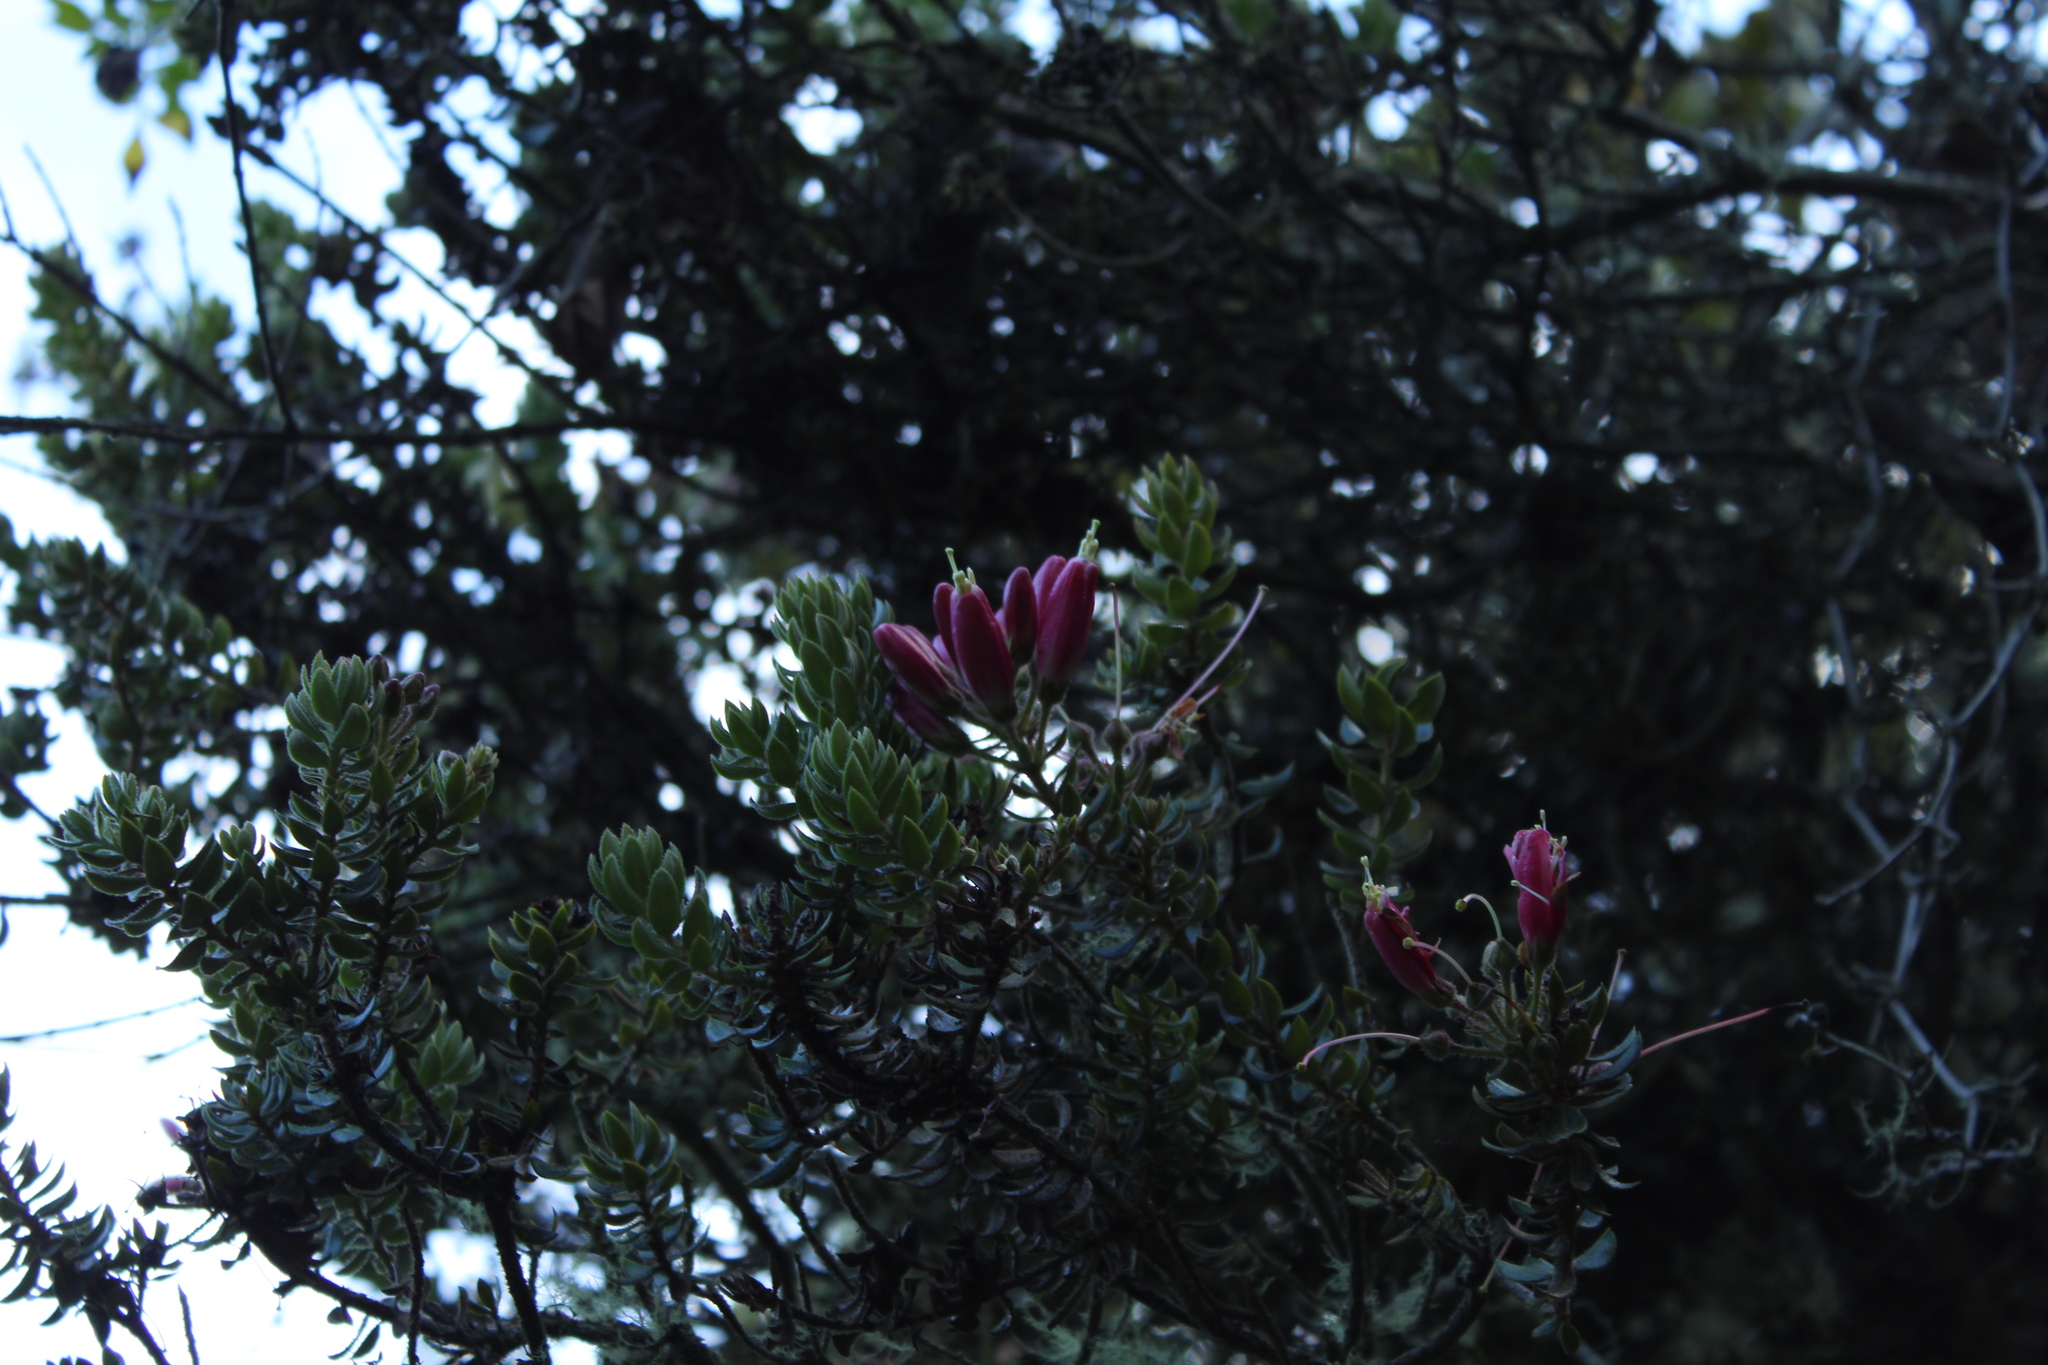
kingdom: Plantae
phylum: Tracheophyta
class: Magnoliopsida
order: Ericales
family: Ericaceae
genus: Bejaria
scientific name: Bejaria resinosa
